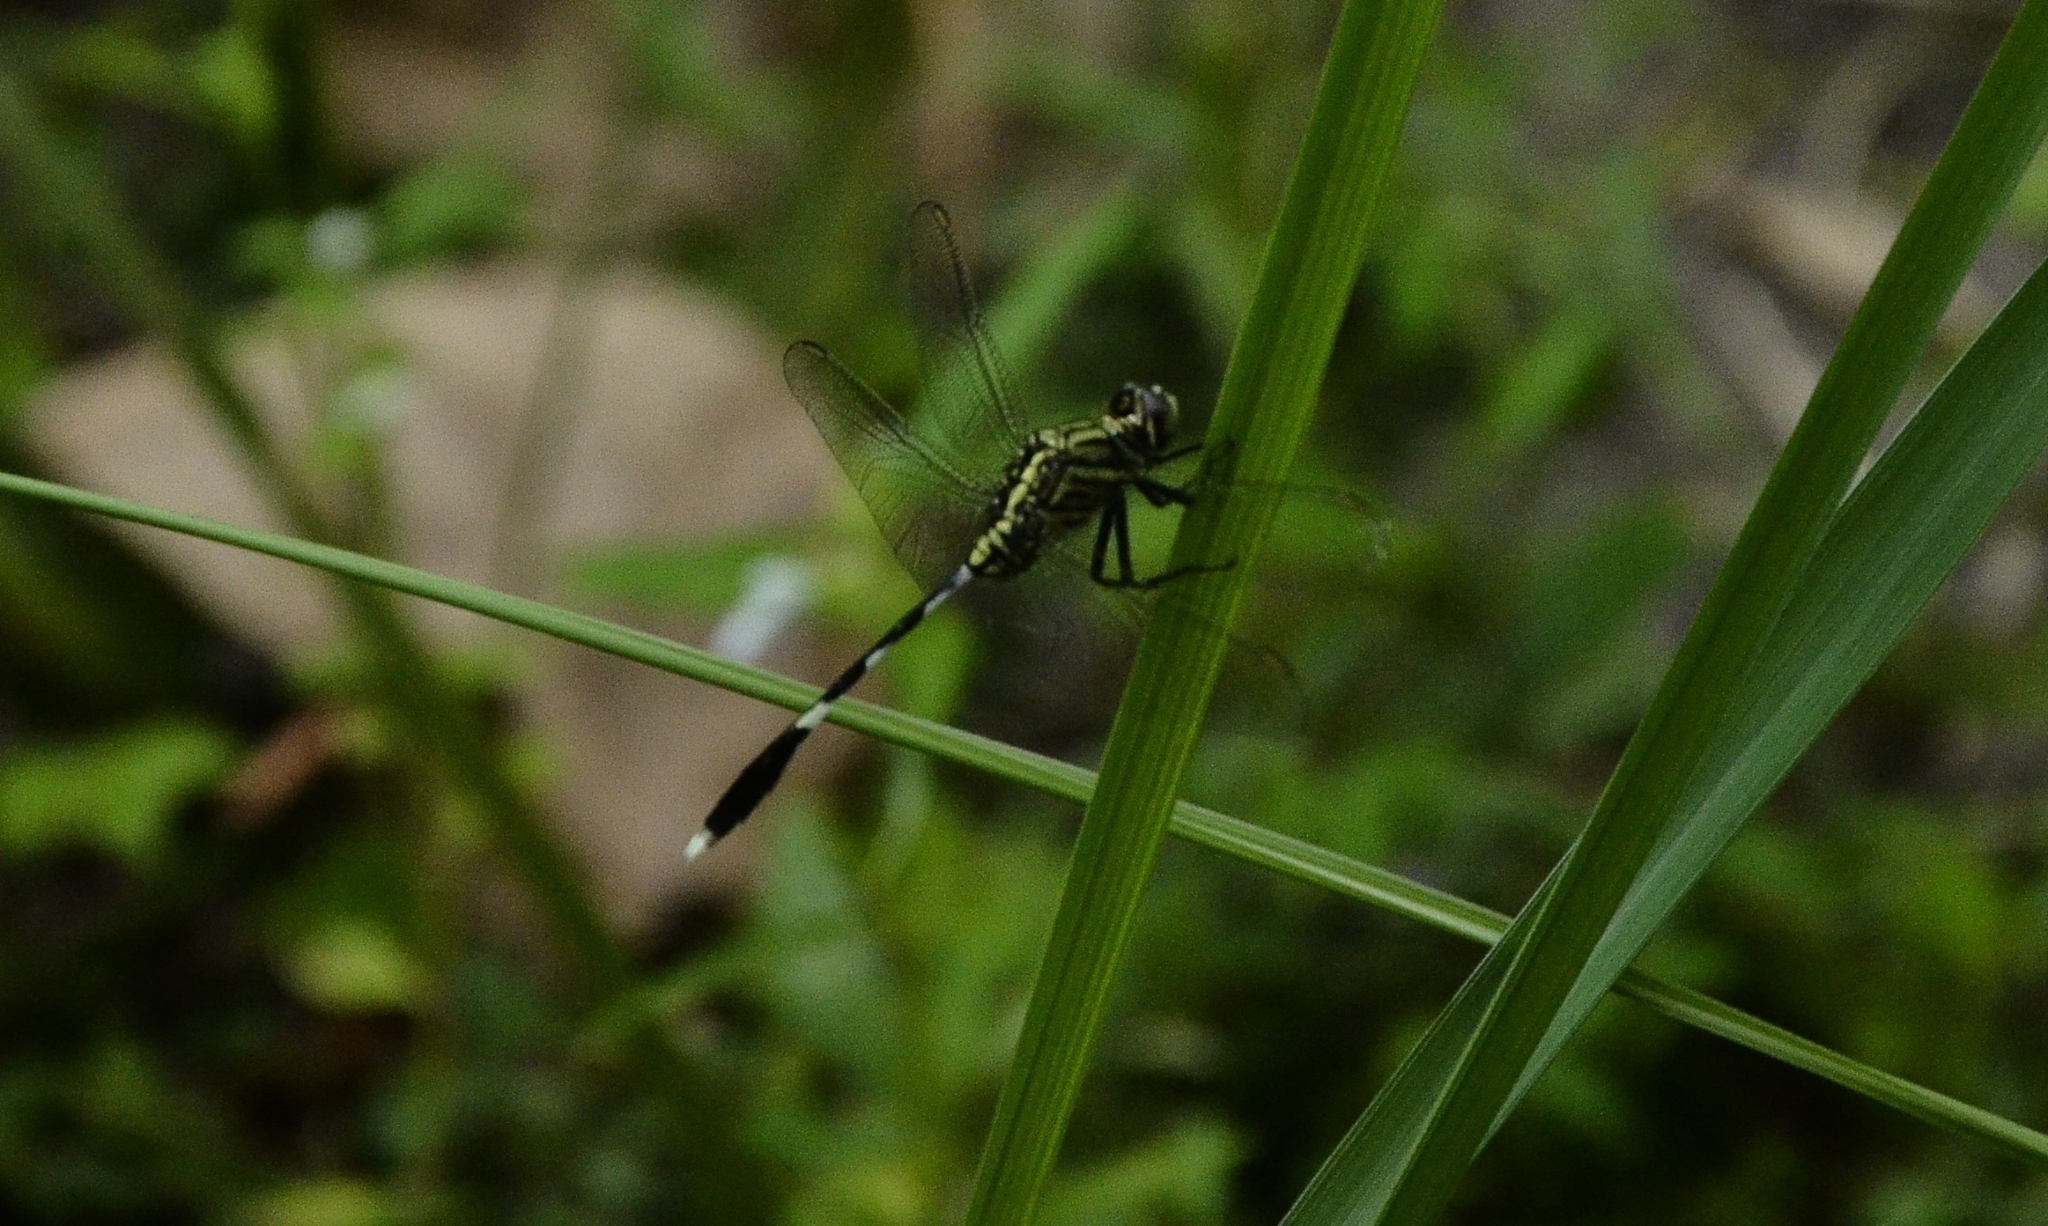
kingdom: Animalia
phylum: Arthropoda
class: Insecta
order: Odonata
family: Libellulidae
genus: Orthetrum
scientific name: Orthetrum sabina
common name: Slender skimmer
